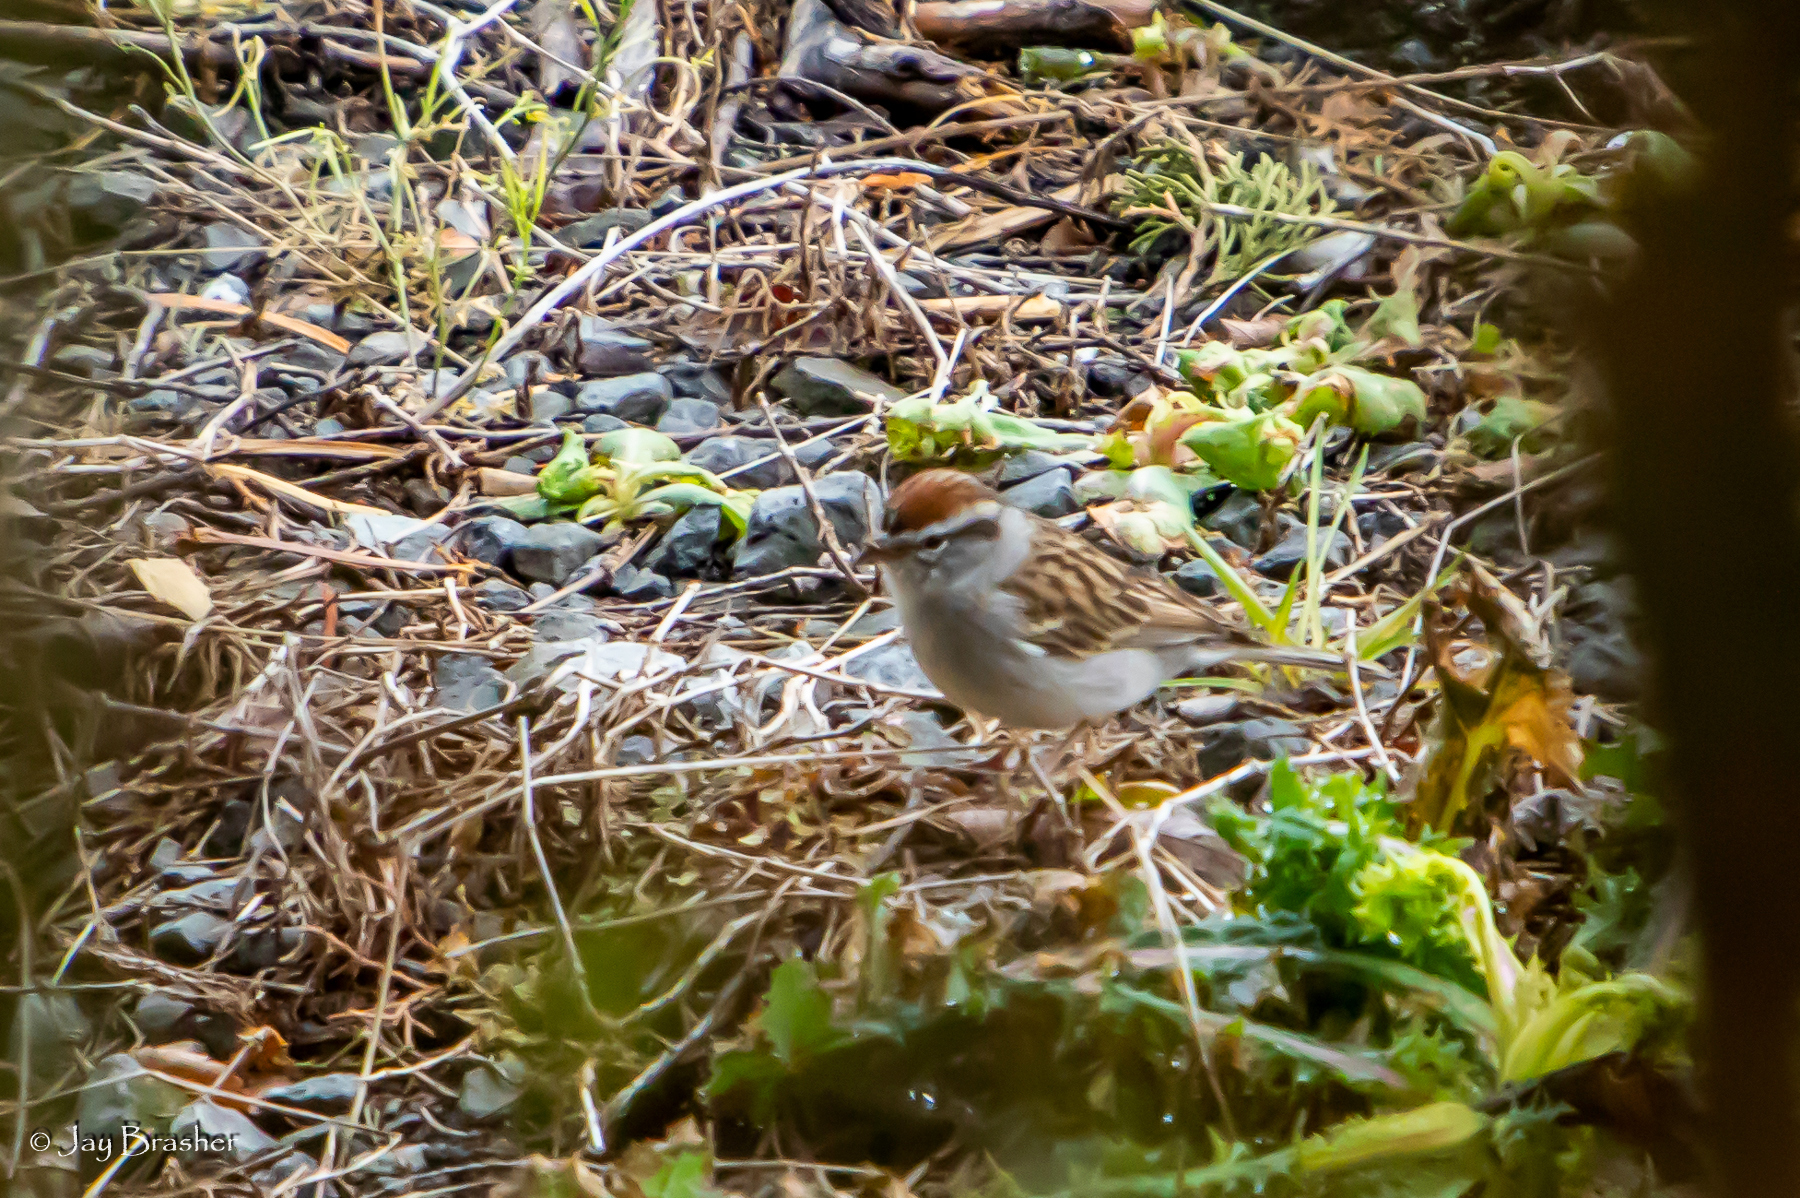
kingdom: Animalia
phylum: Chordata
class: Aves
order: Passeriformes
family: Passerellidae
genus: Spizella
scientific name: Spizella passerina
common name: Chipping sparrow
